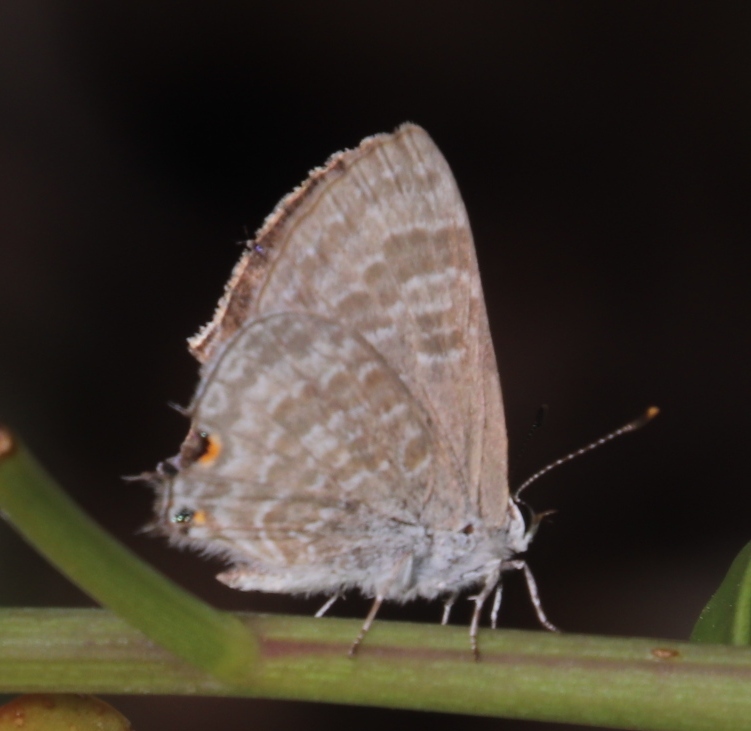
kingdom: Animalia
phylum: Arthropoda
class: Insecta
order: Lepidoptera
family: Lycaenidae
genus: Anthene
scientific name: Anthene definita
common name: Common ciliate blue
